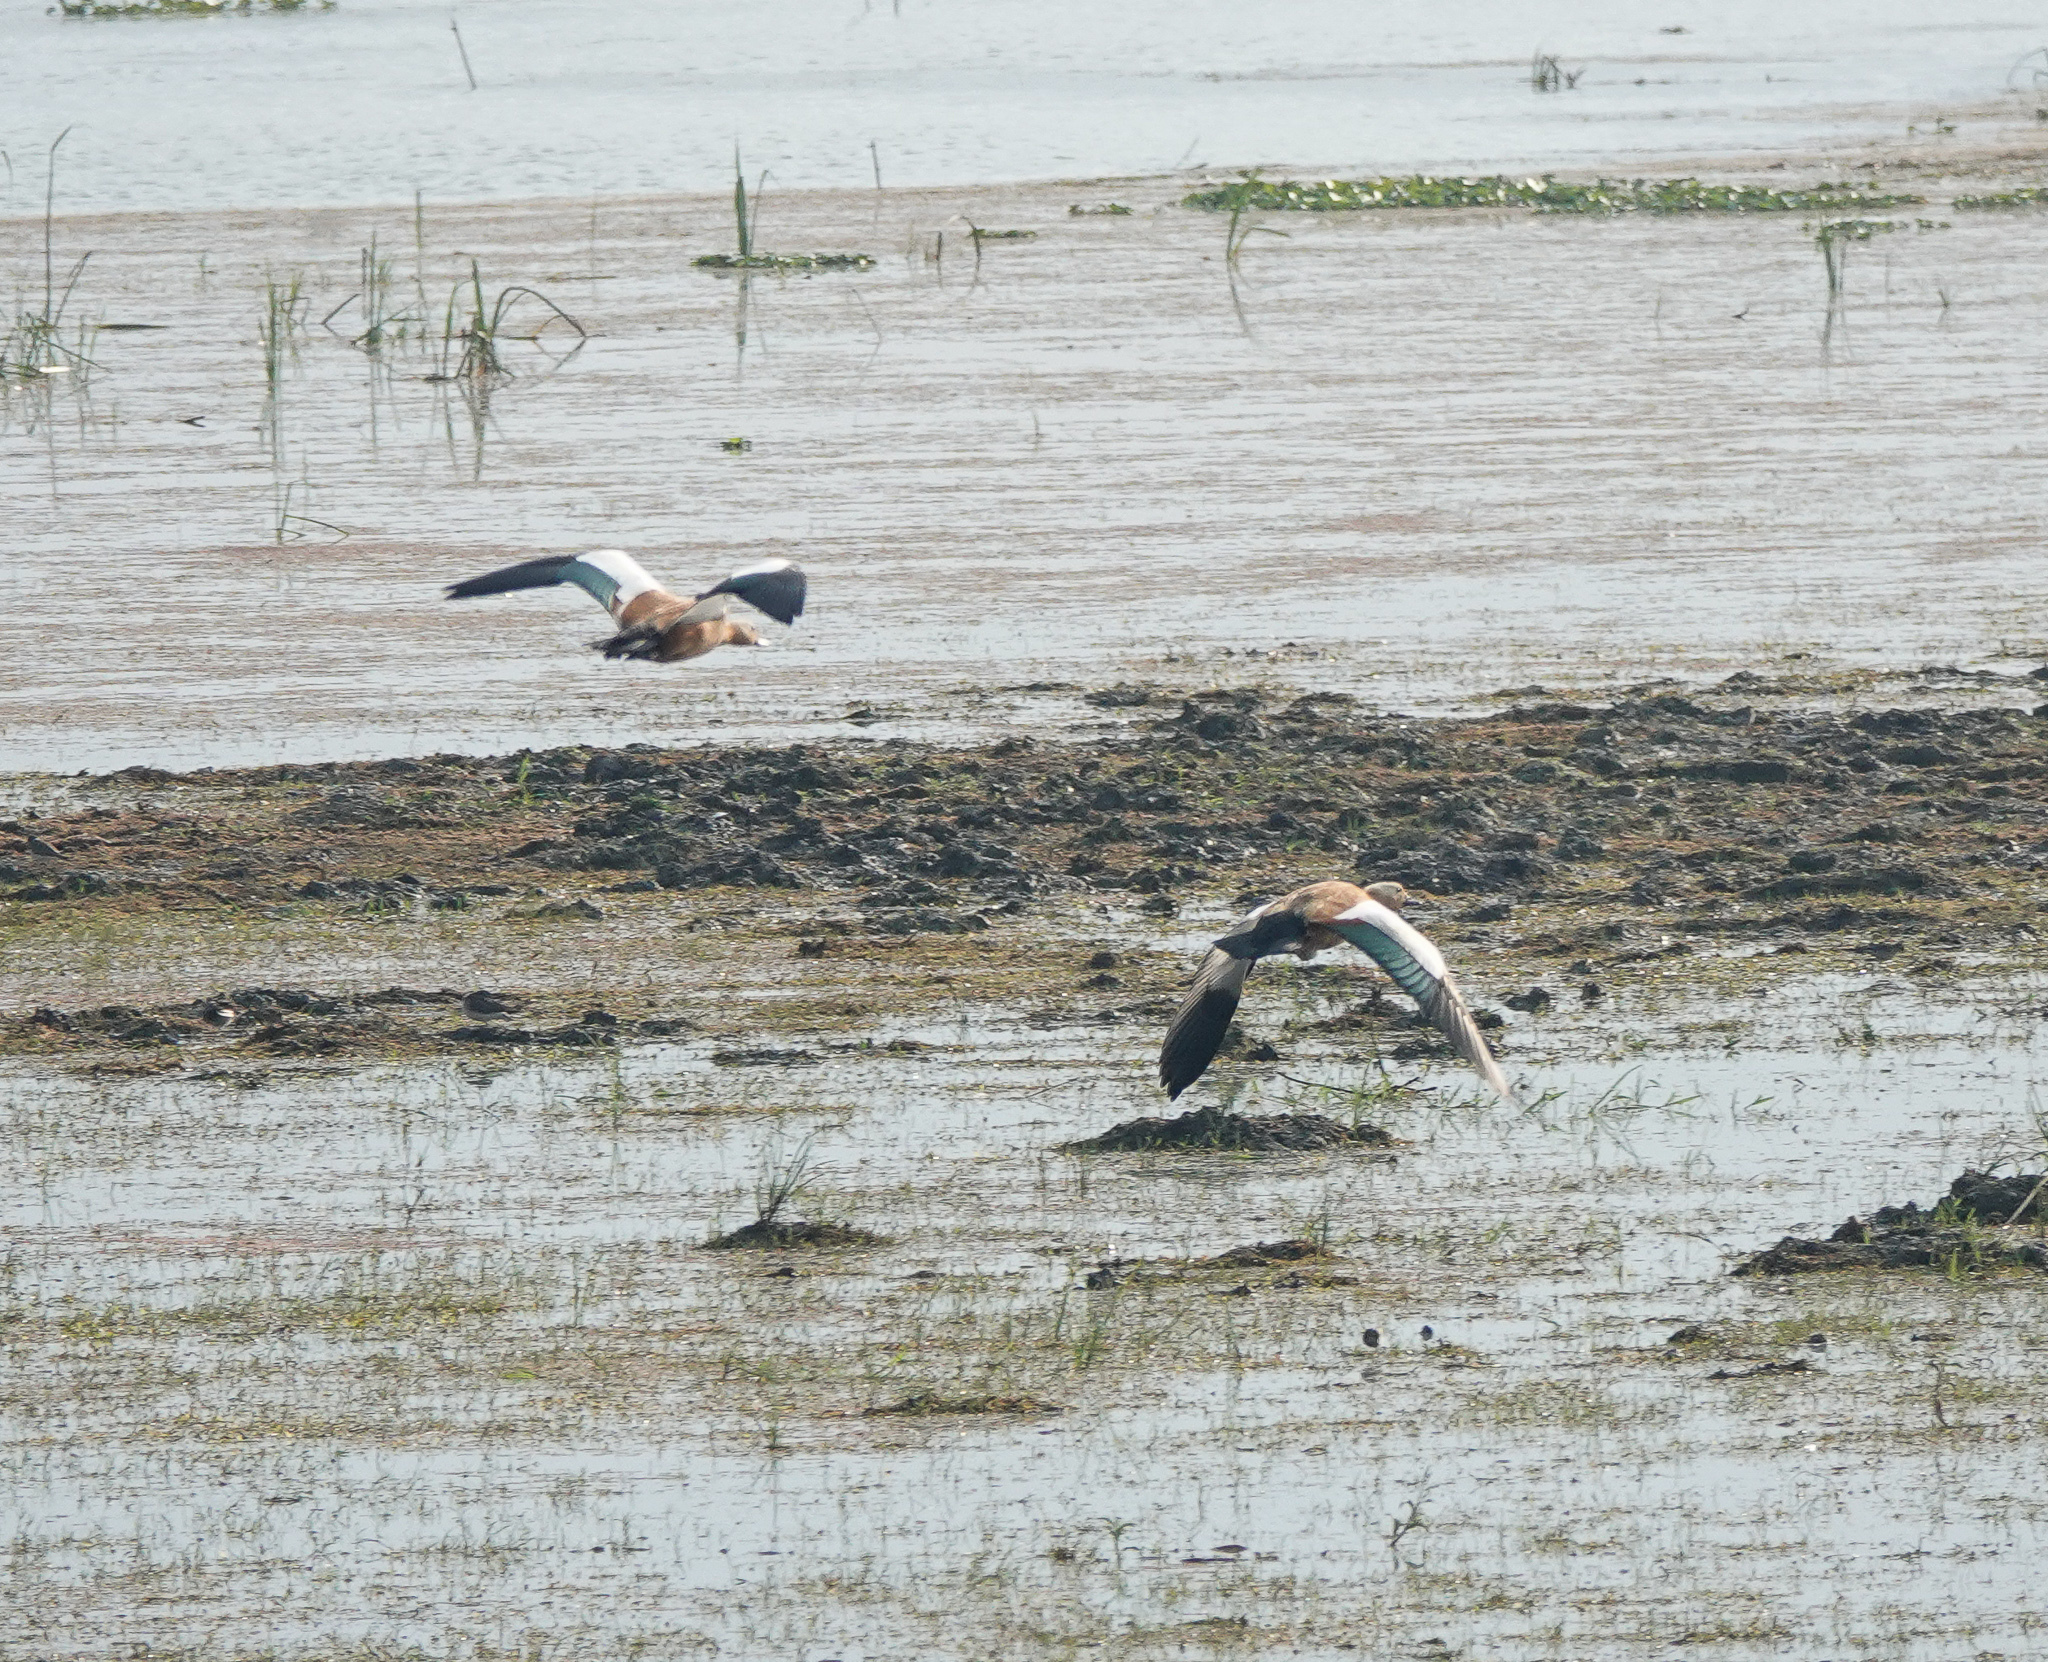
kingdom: Animalia
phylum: Chordata
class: Aves
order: Anseriformes
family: Anatidae
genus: Tadorna
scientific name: Tadorna ferruginea
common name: Ruddy shelduck
